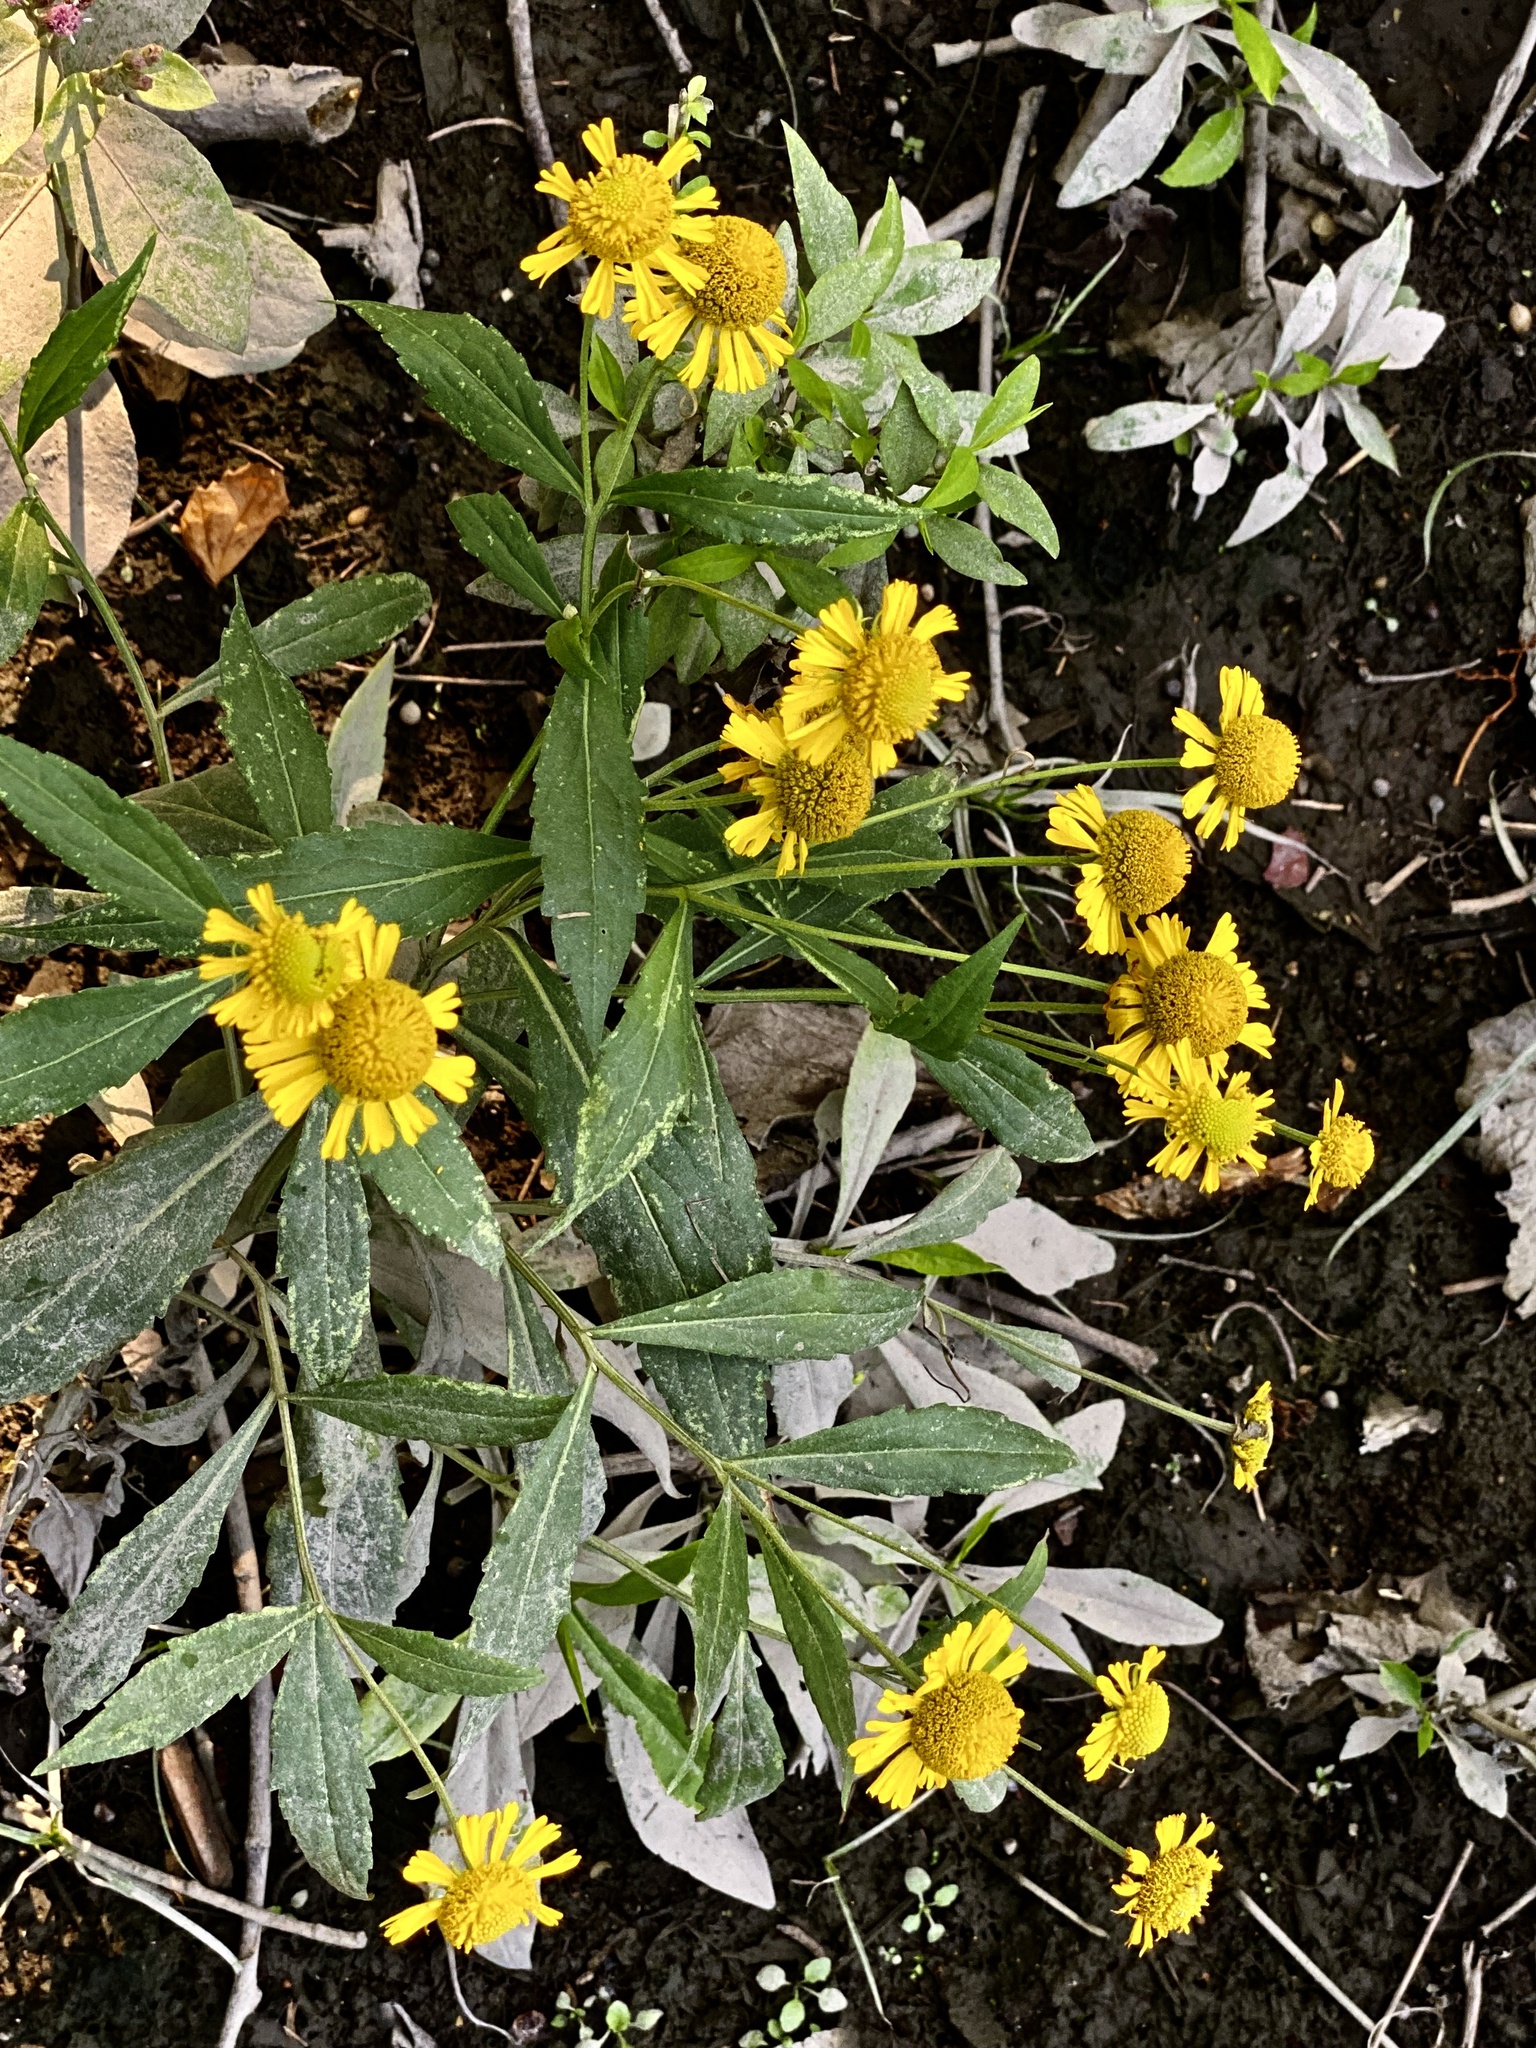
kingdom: Plantae
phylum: Tracheophyta
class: Magnoliopsida
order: Asterales
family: Asteraceae
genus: Helenium
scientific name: Helenium autumnale
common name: Sneezeweed
